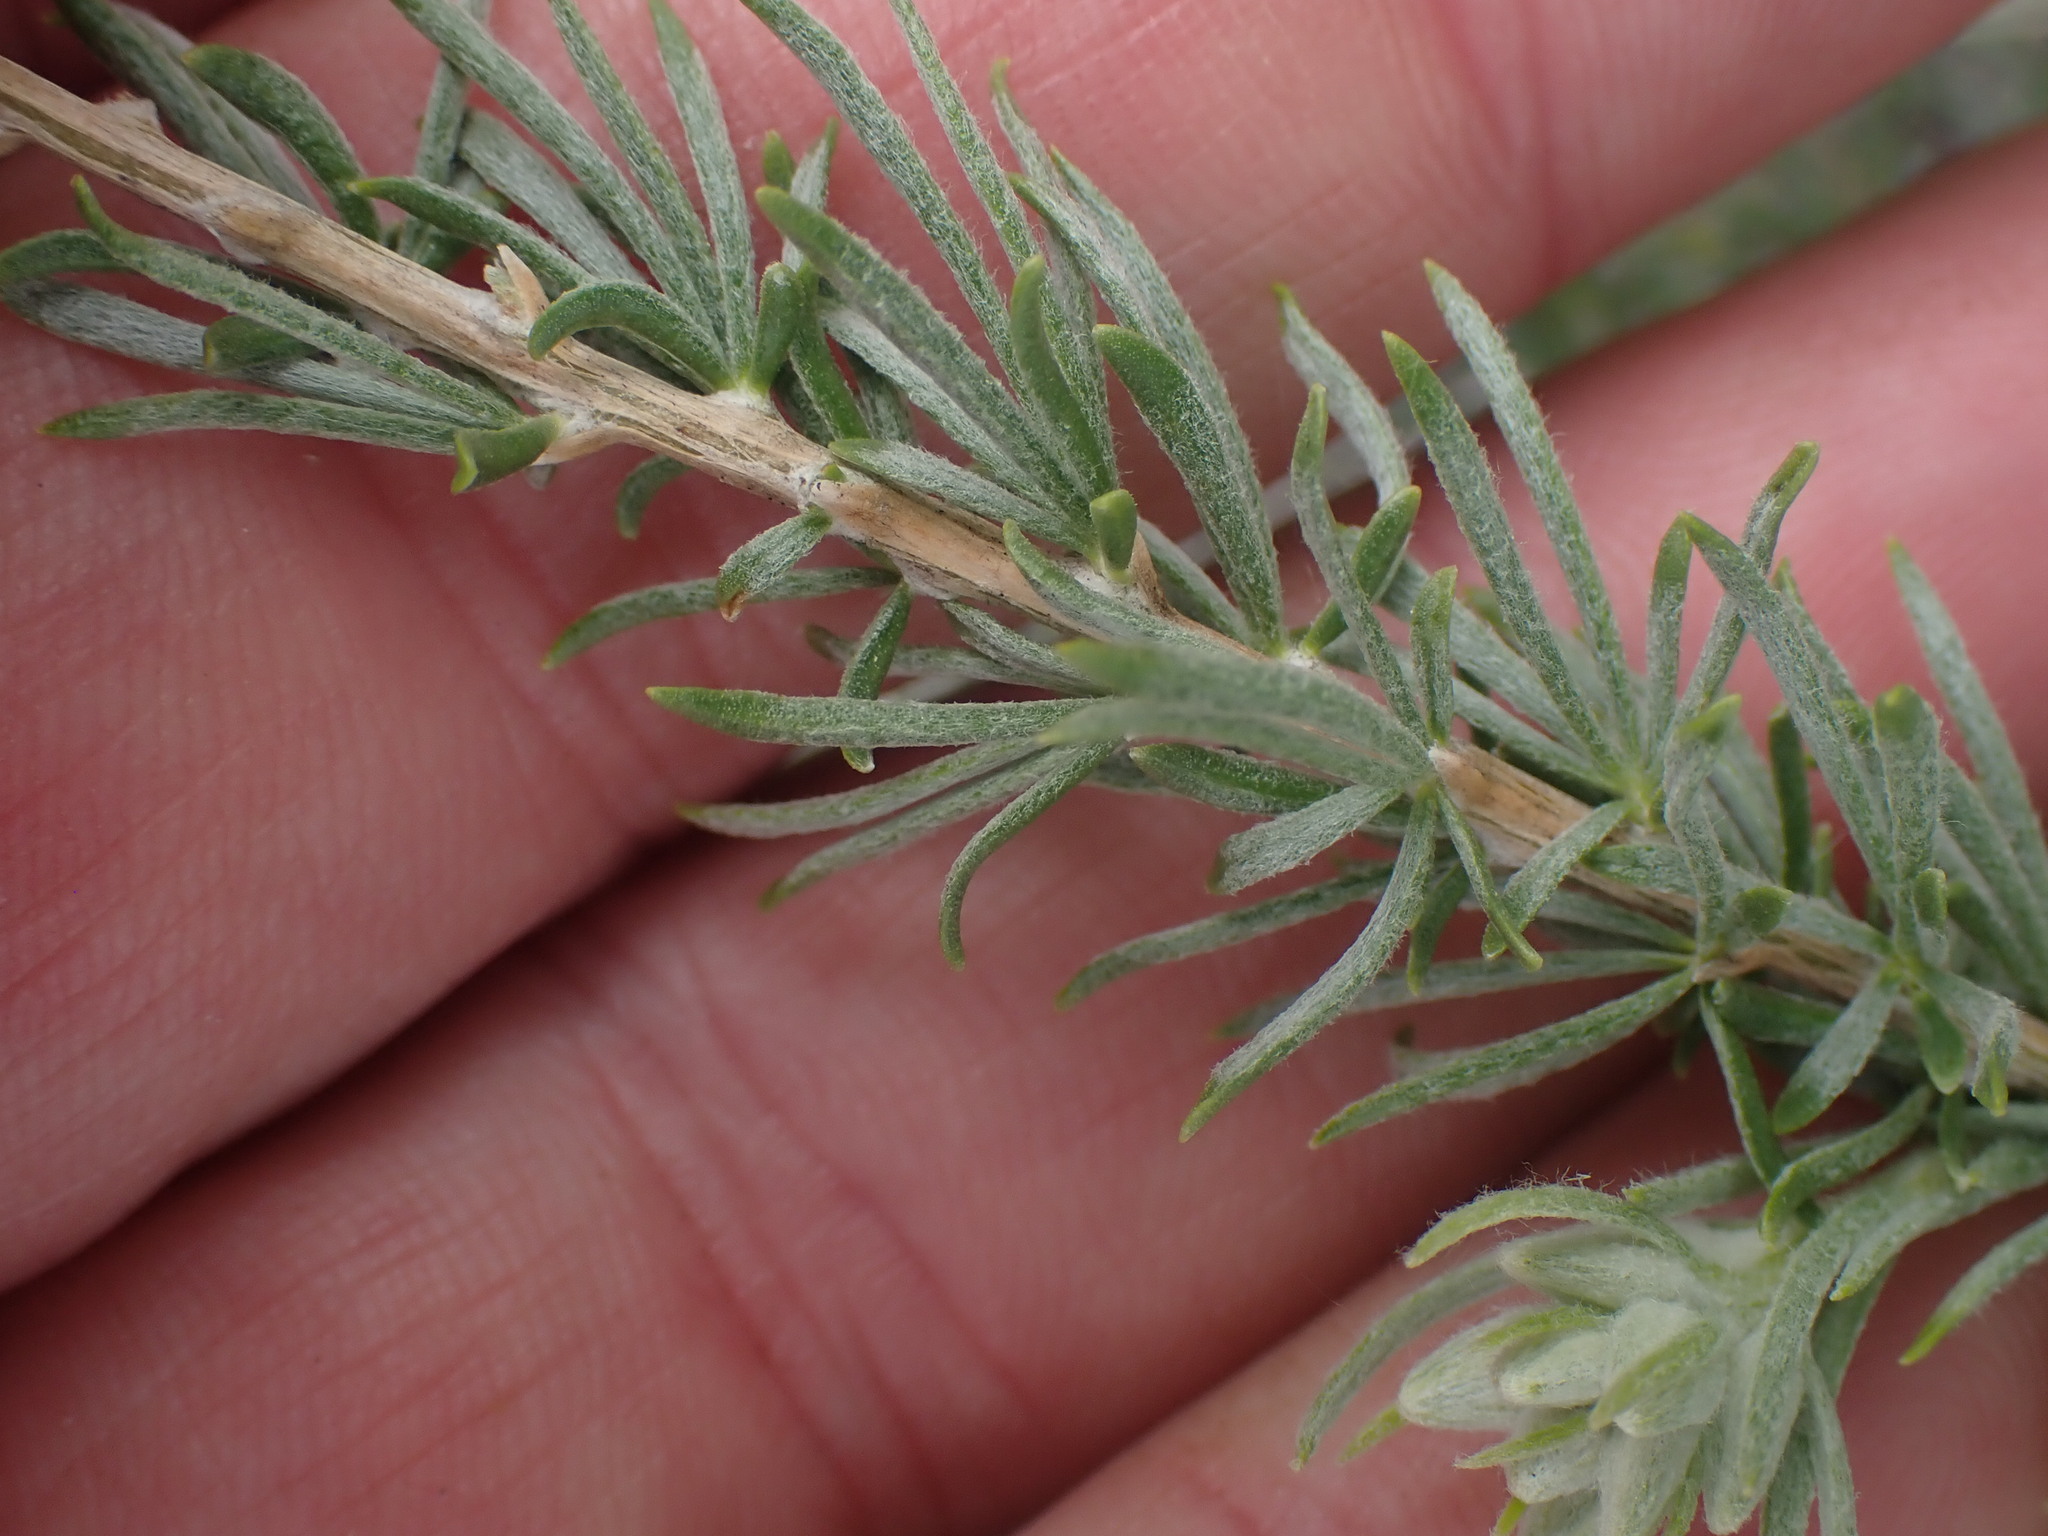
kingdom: Plantae
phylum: Tracheophyta
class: Magnoliopsida
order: Asterales
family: Asteraceae
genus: Tetradymia
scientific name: Tetradymia canescens
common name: Spineless horsebrush
